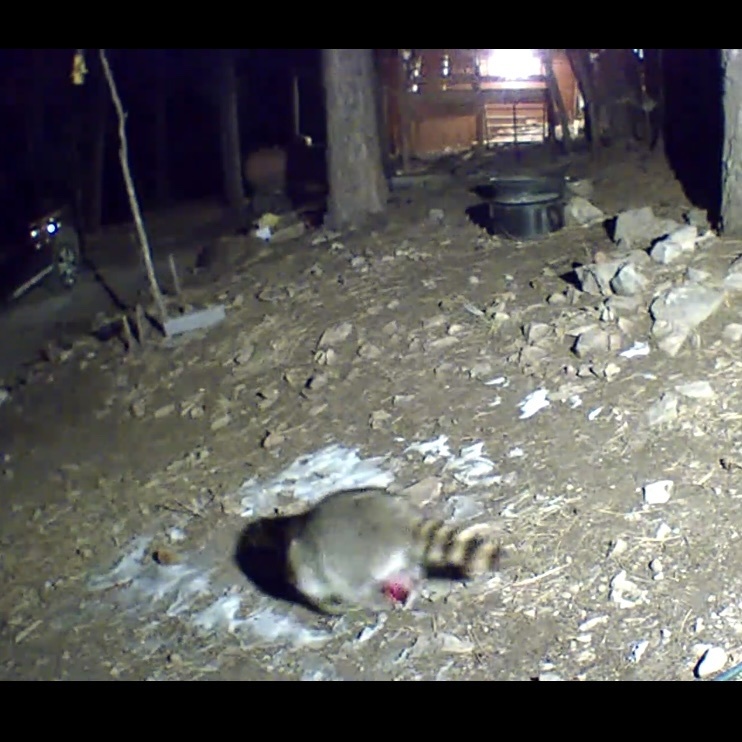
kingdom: Animalia
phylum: Chordata
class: Mammalia
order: Carnivora
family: Procyonidae
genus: Procyon
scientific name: Procyon lotor
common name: Raccoon
